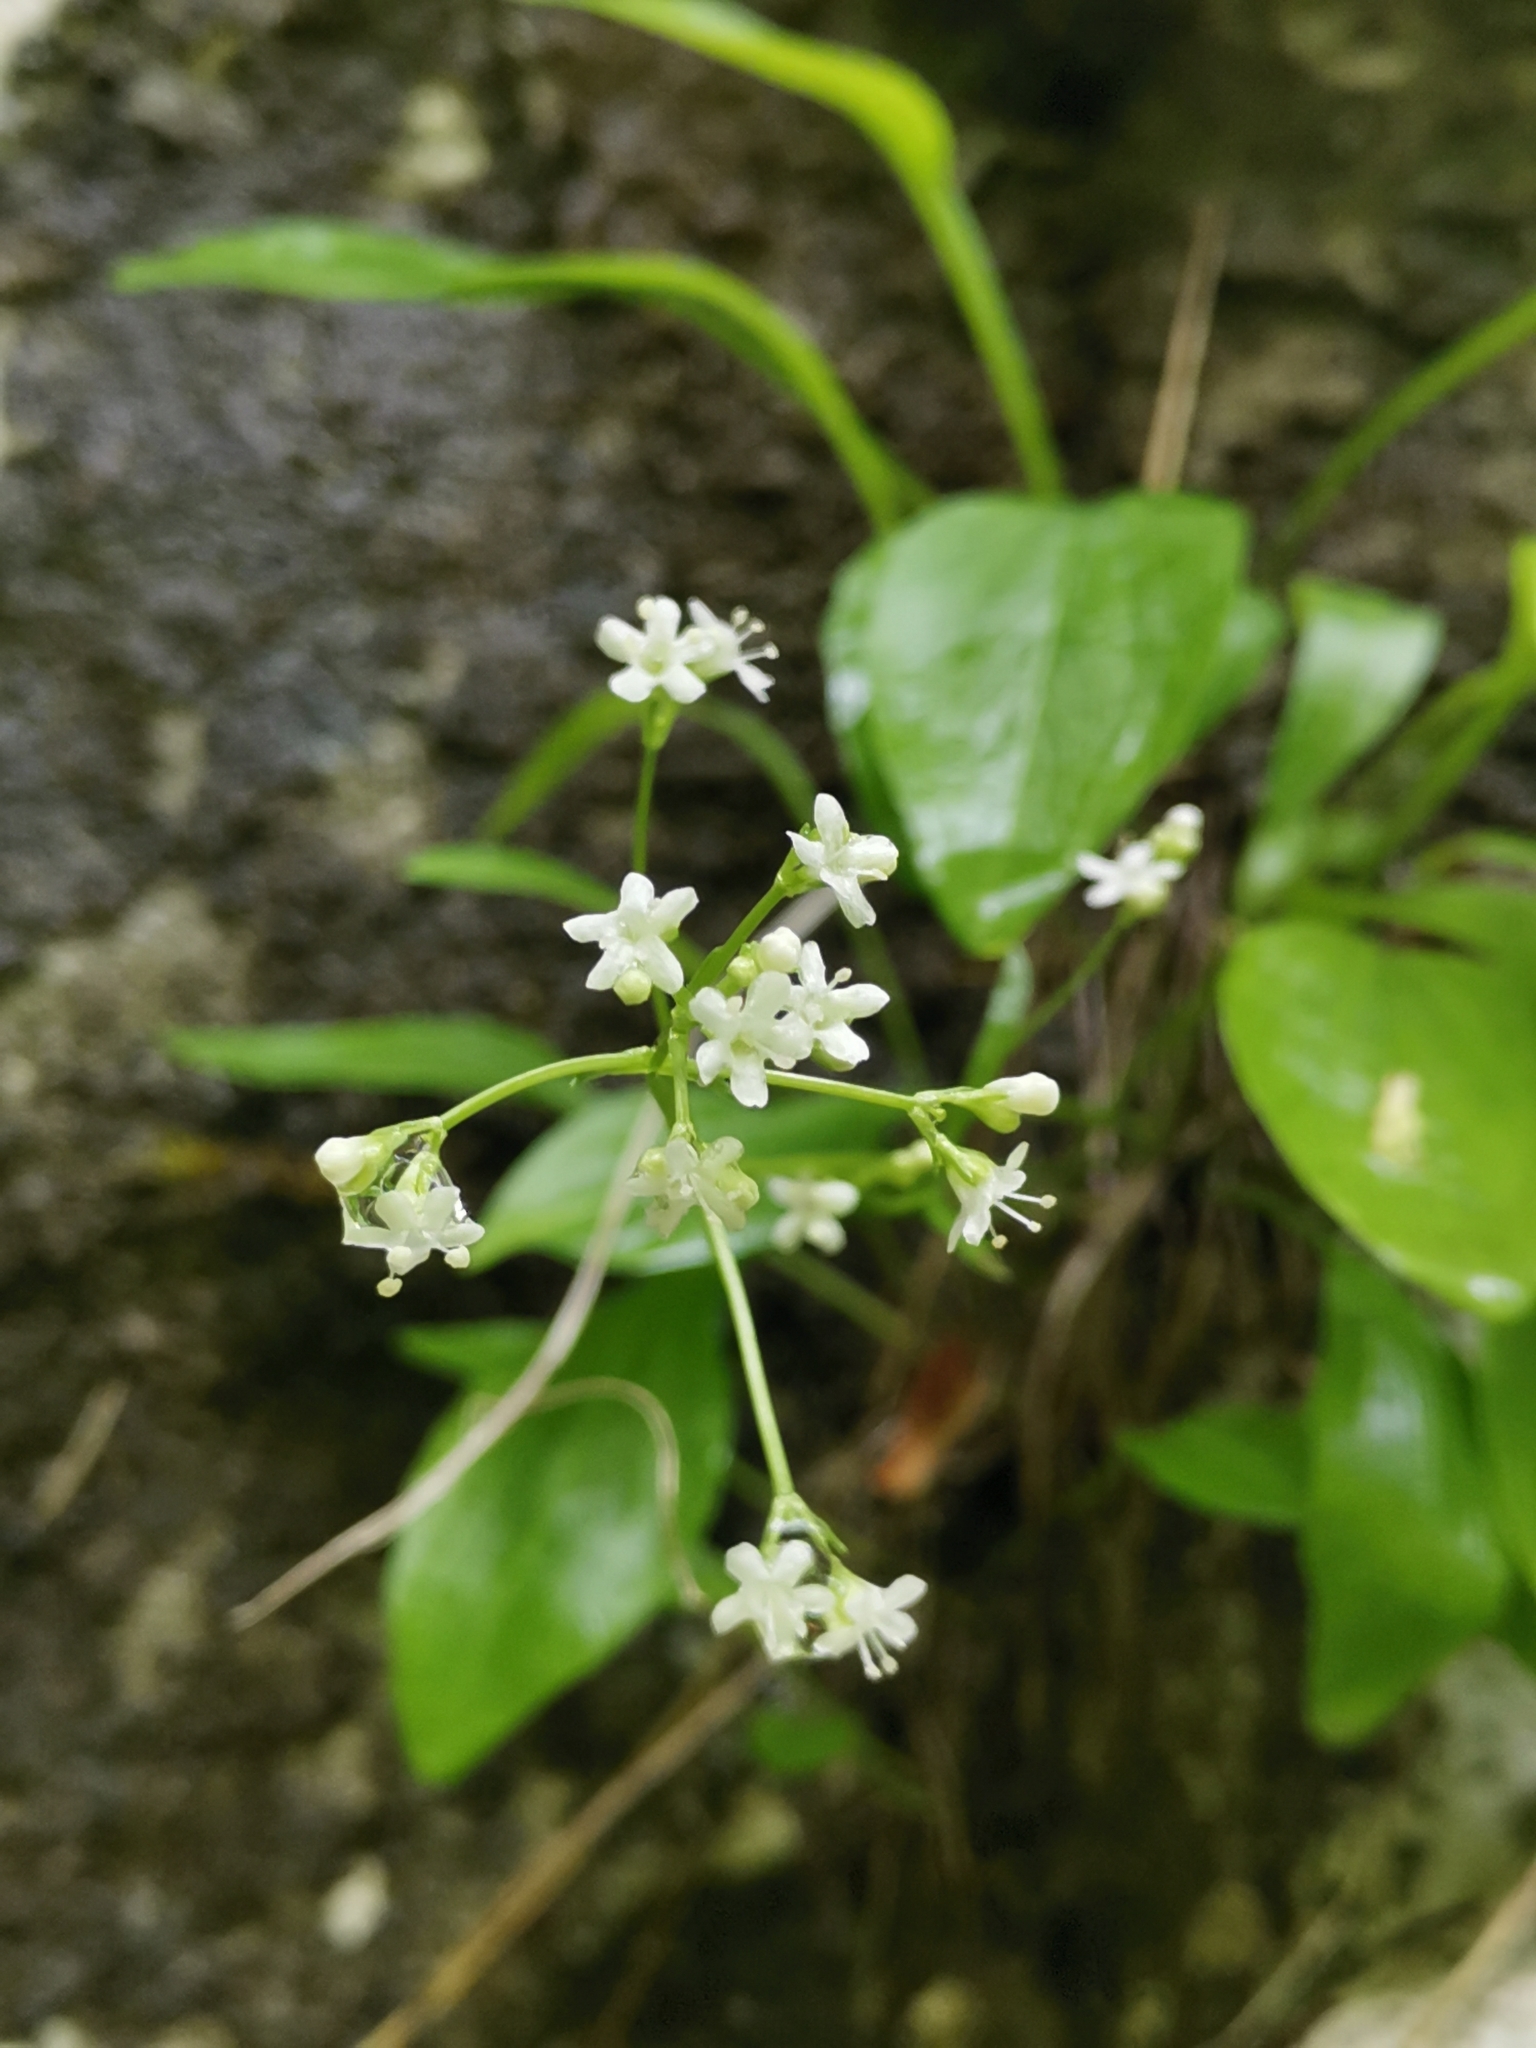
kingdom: Plantae
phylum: Tracheophyta
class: Magnoliopsida
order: Dipsacales
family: Caprifoliaceae
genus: Valeriana
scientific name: Valeriana saxatilis
